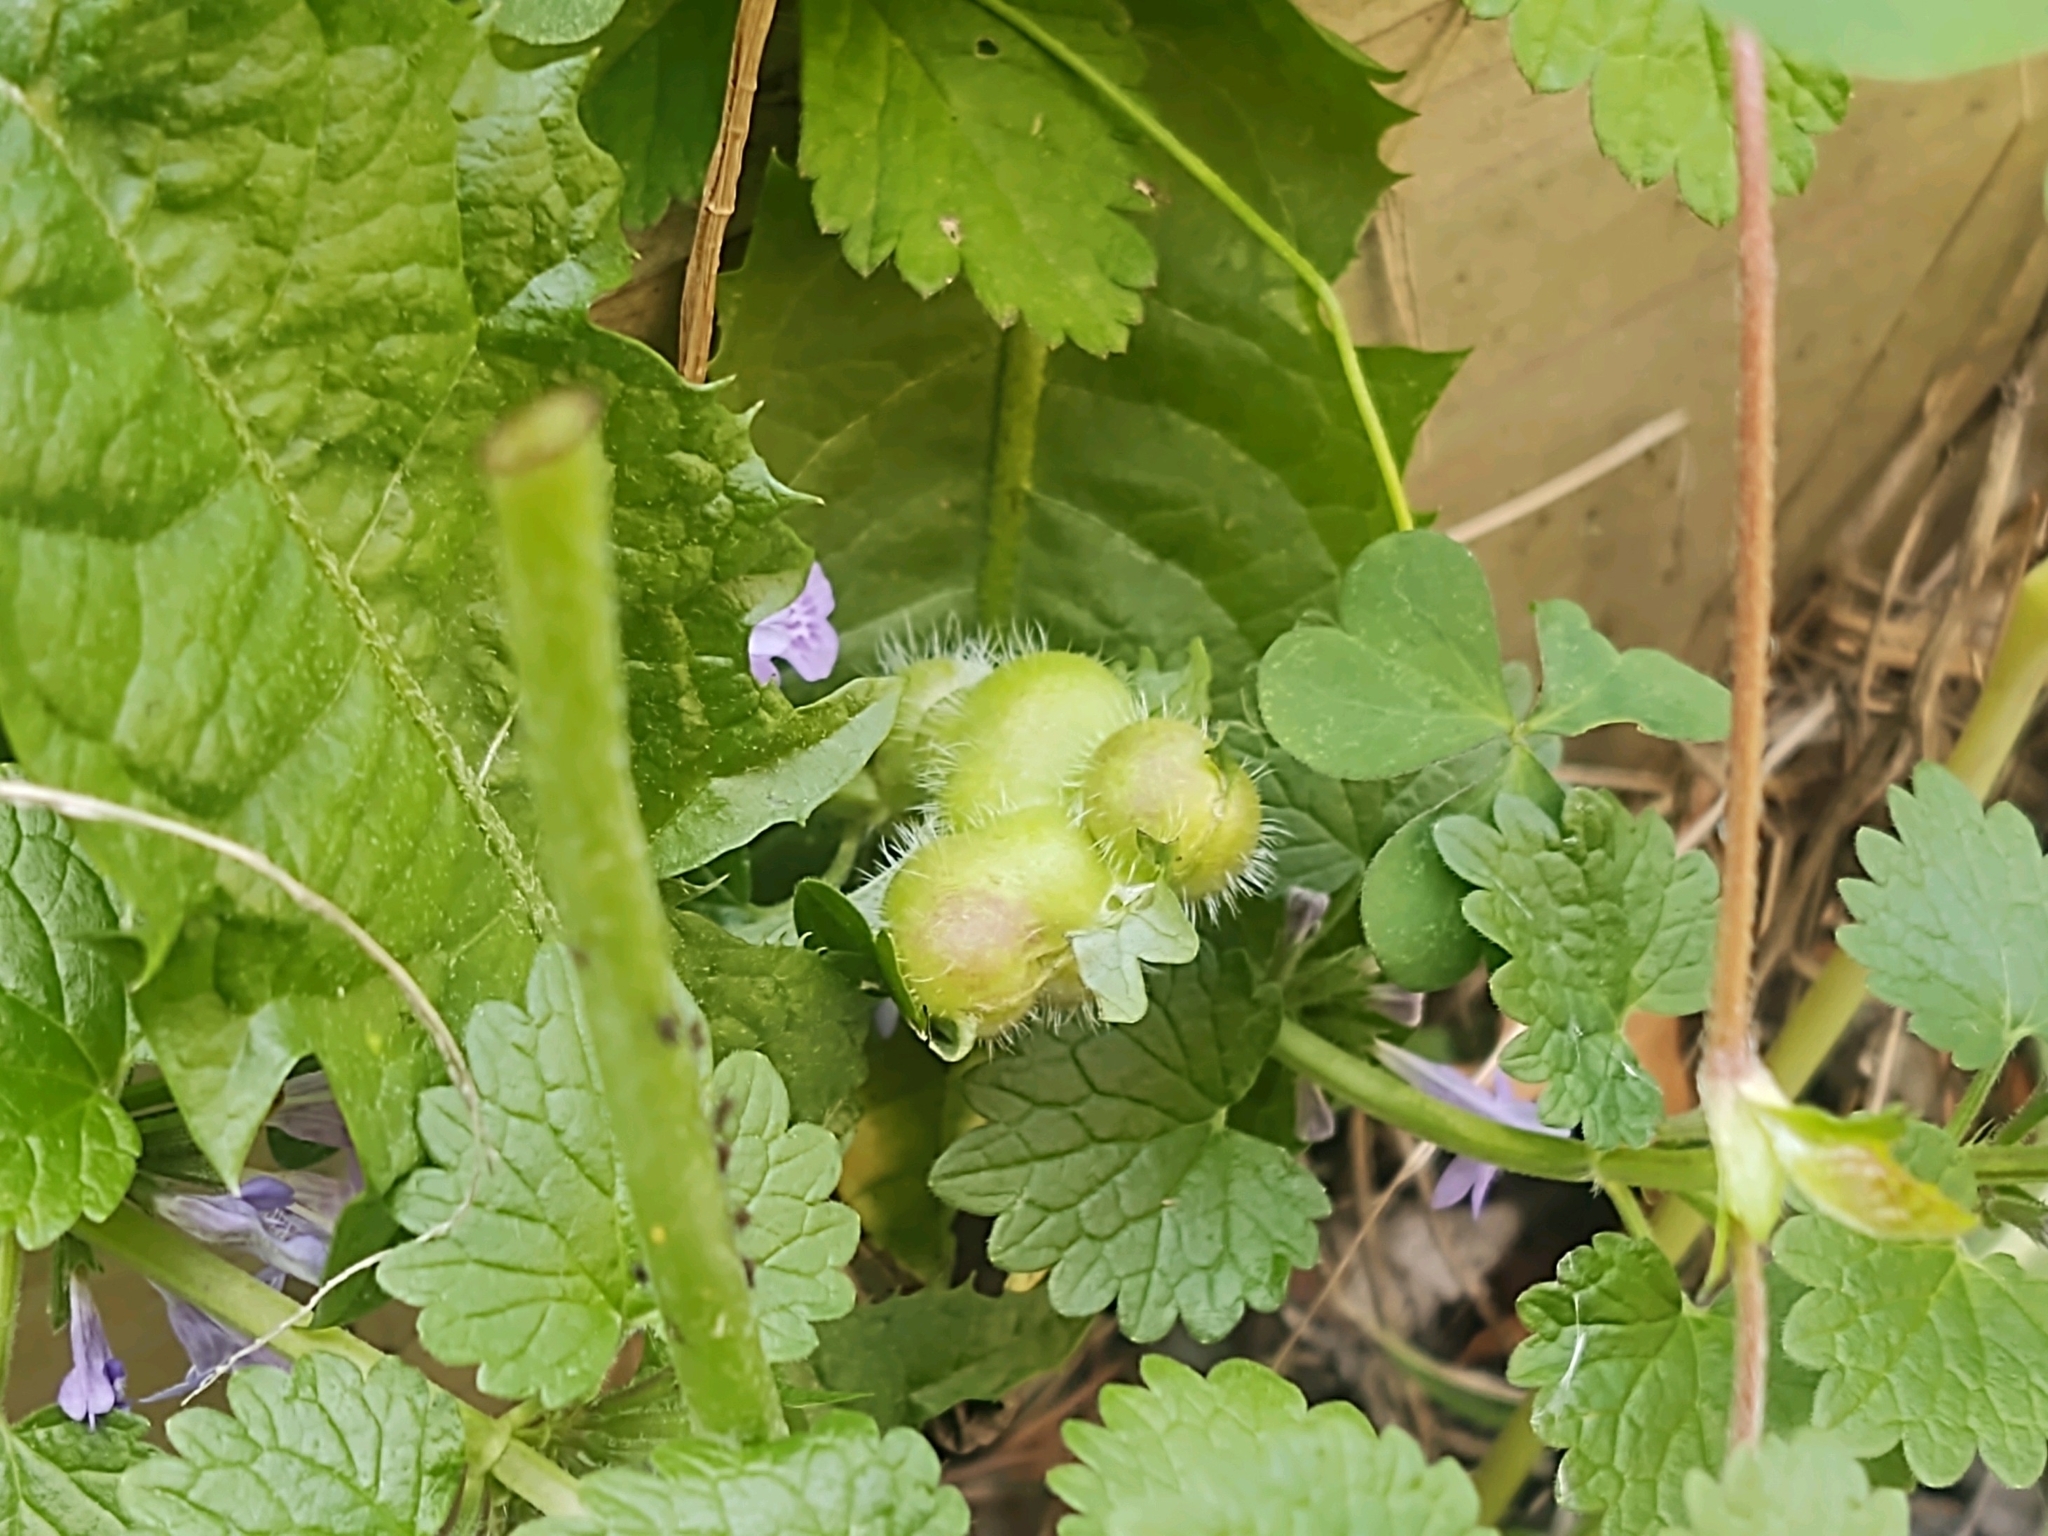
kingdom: Animalia
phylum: Arthropoda
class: Insecta
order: Hymenoptera
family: Cynipidae
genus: Liposthenes
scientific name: Liposthenes glechomae
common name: Gall wasp
